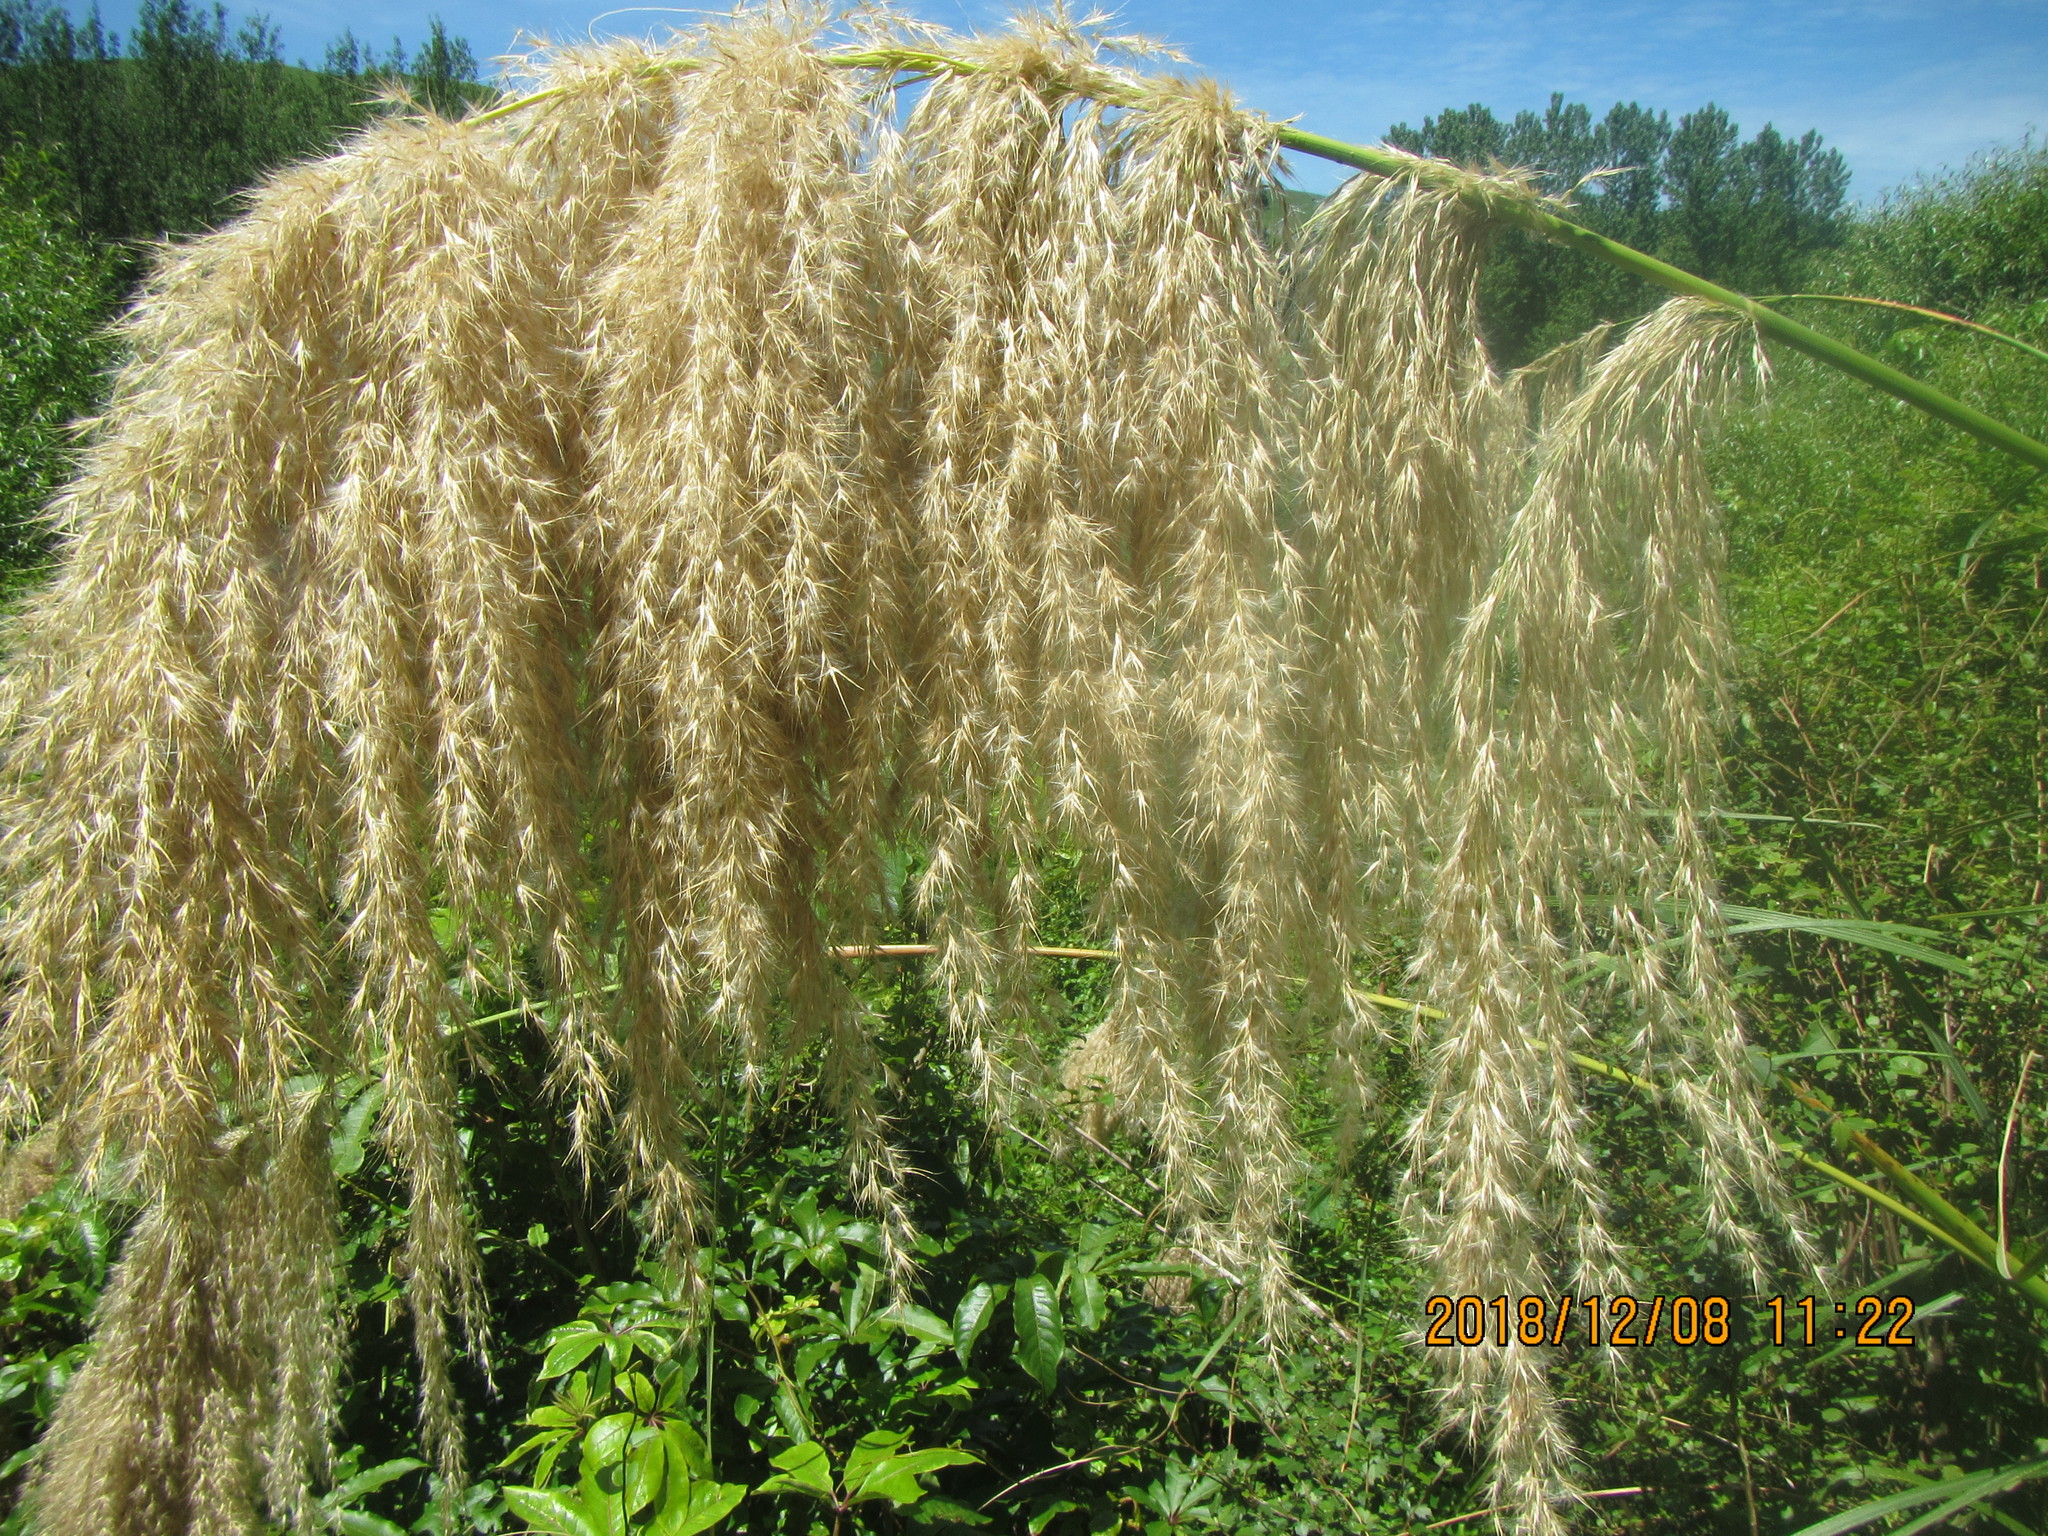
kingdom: Plantae
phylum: Tracheophyta
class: Liliopsida
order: Poales
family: Poaceae
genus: Austroderia
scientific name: Austroderia fulvida
